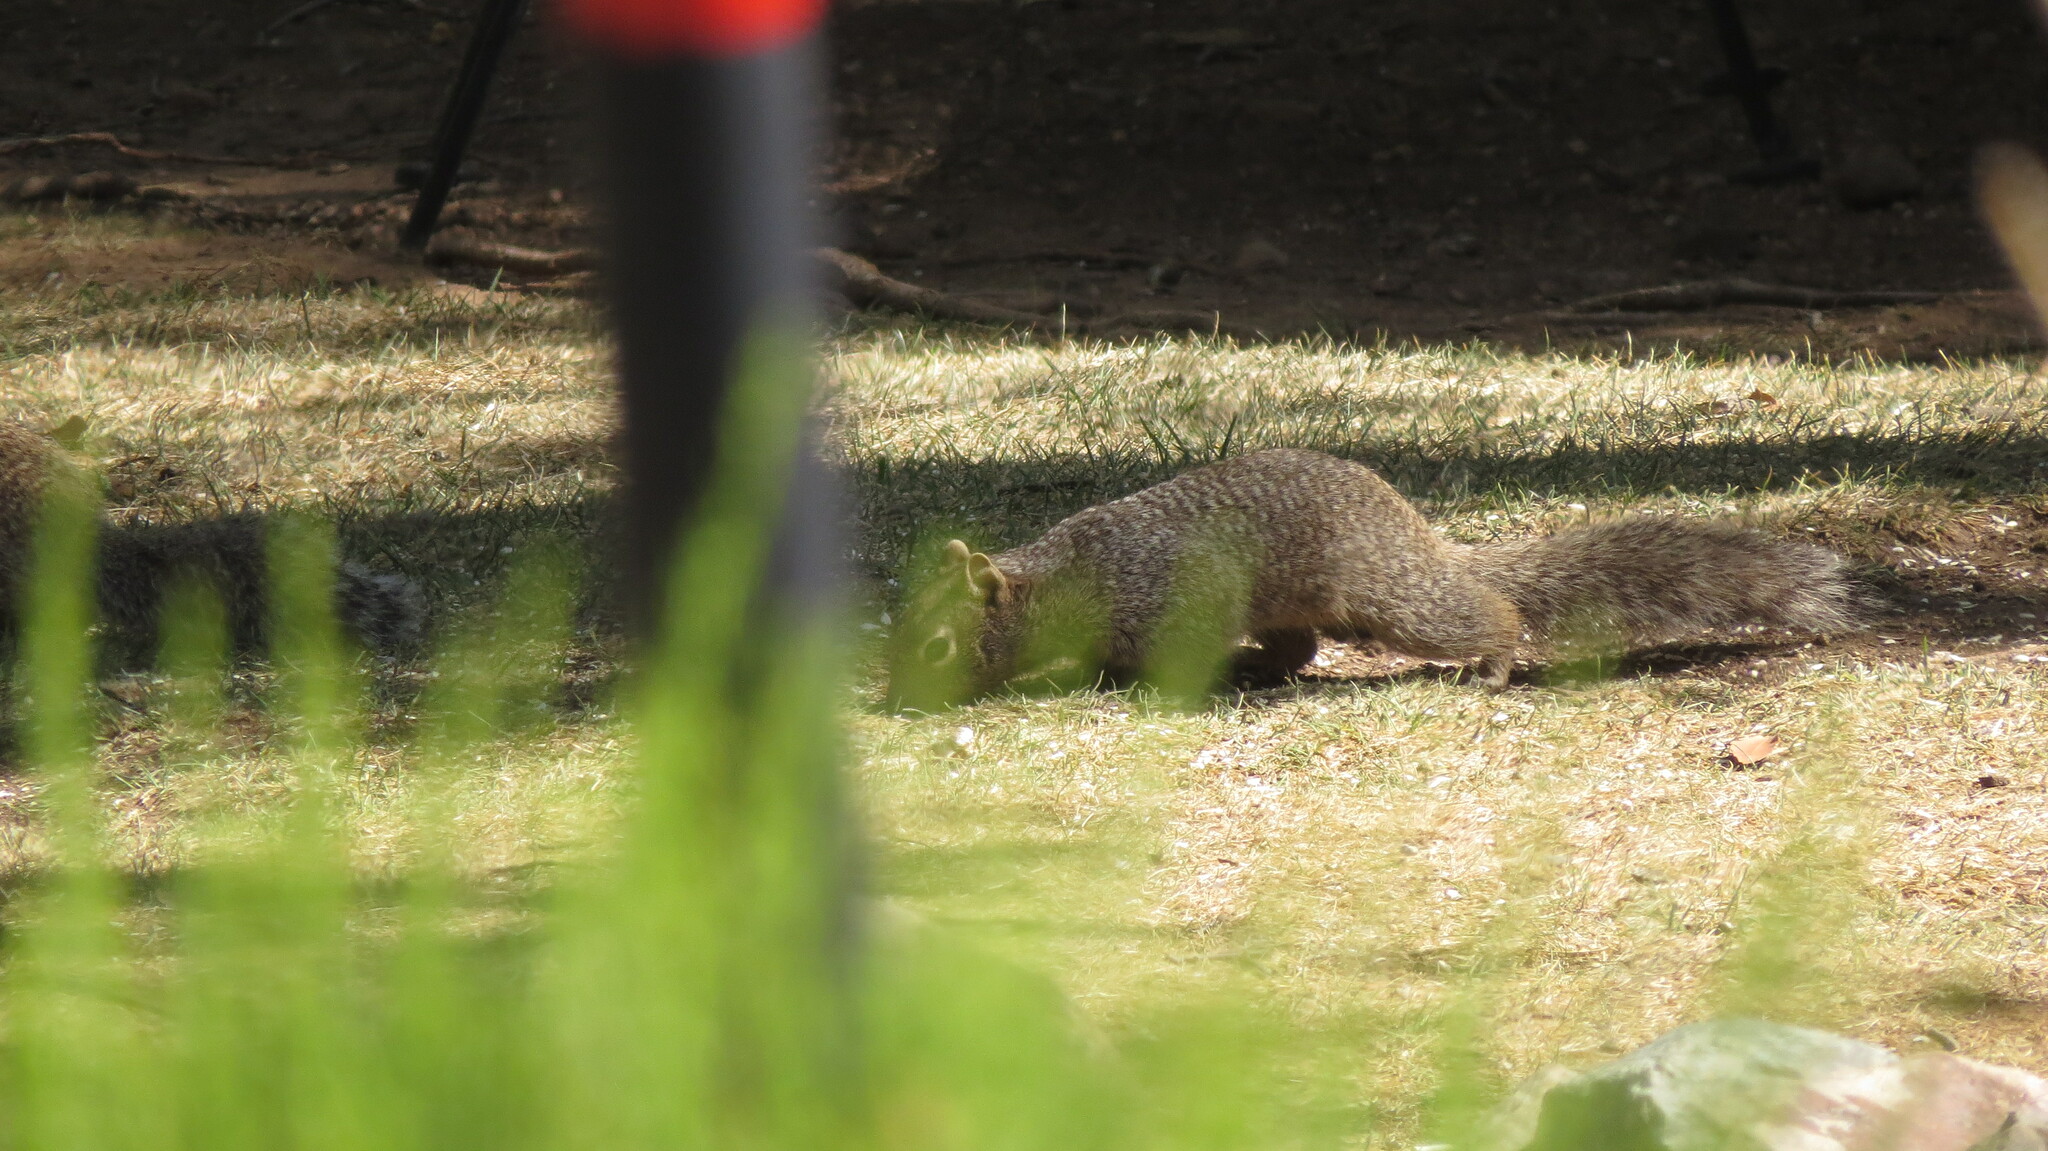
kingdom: Animalia
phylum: Chordata
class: Mammalia
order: Rodentia
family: Sciuridae
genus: Otospermophilus
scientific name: Otospermophilus variegatus
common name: Rock squirrel
